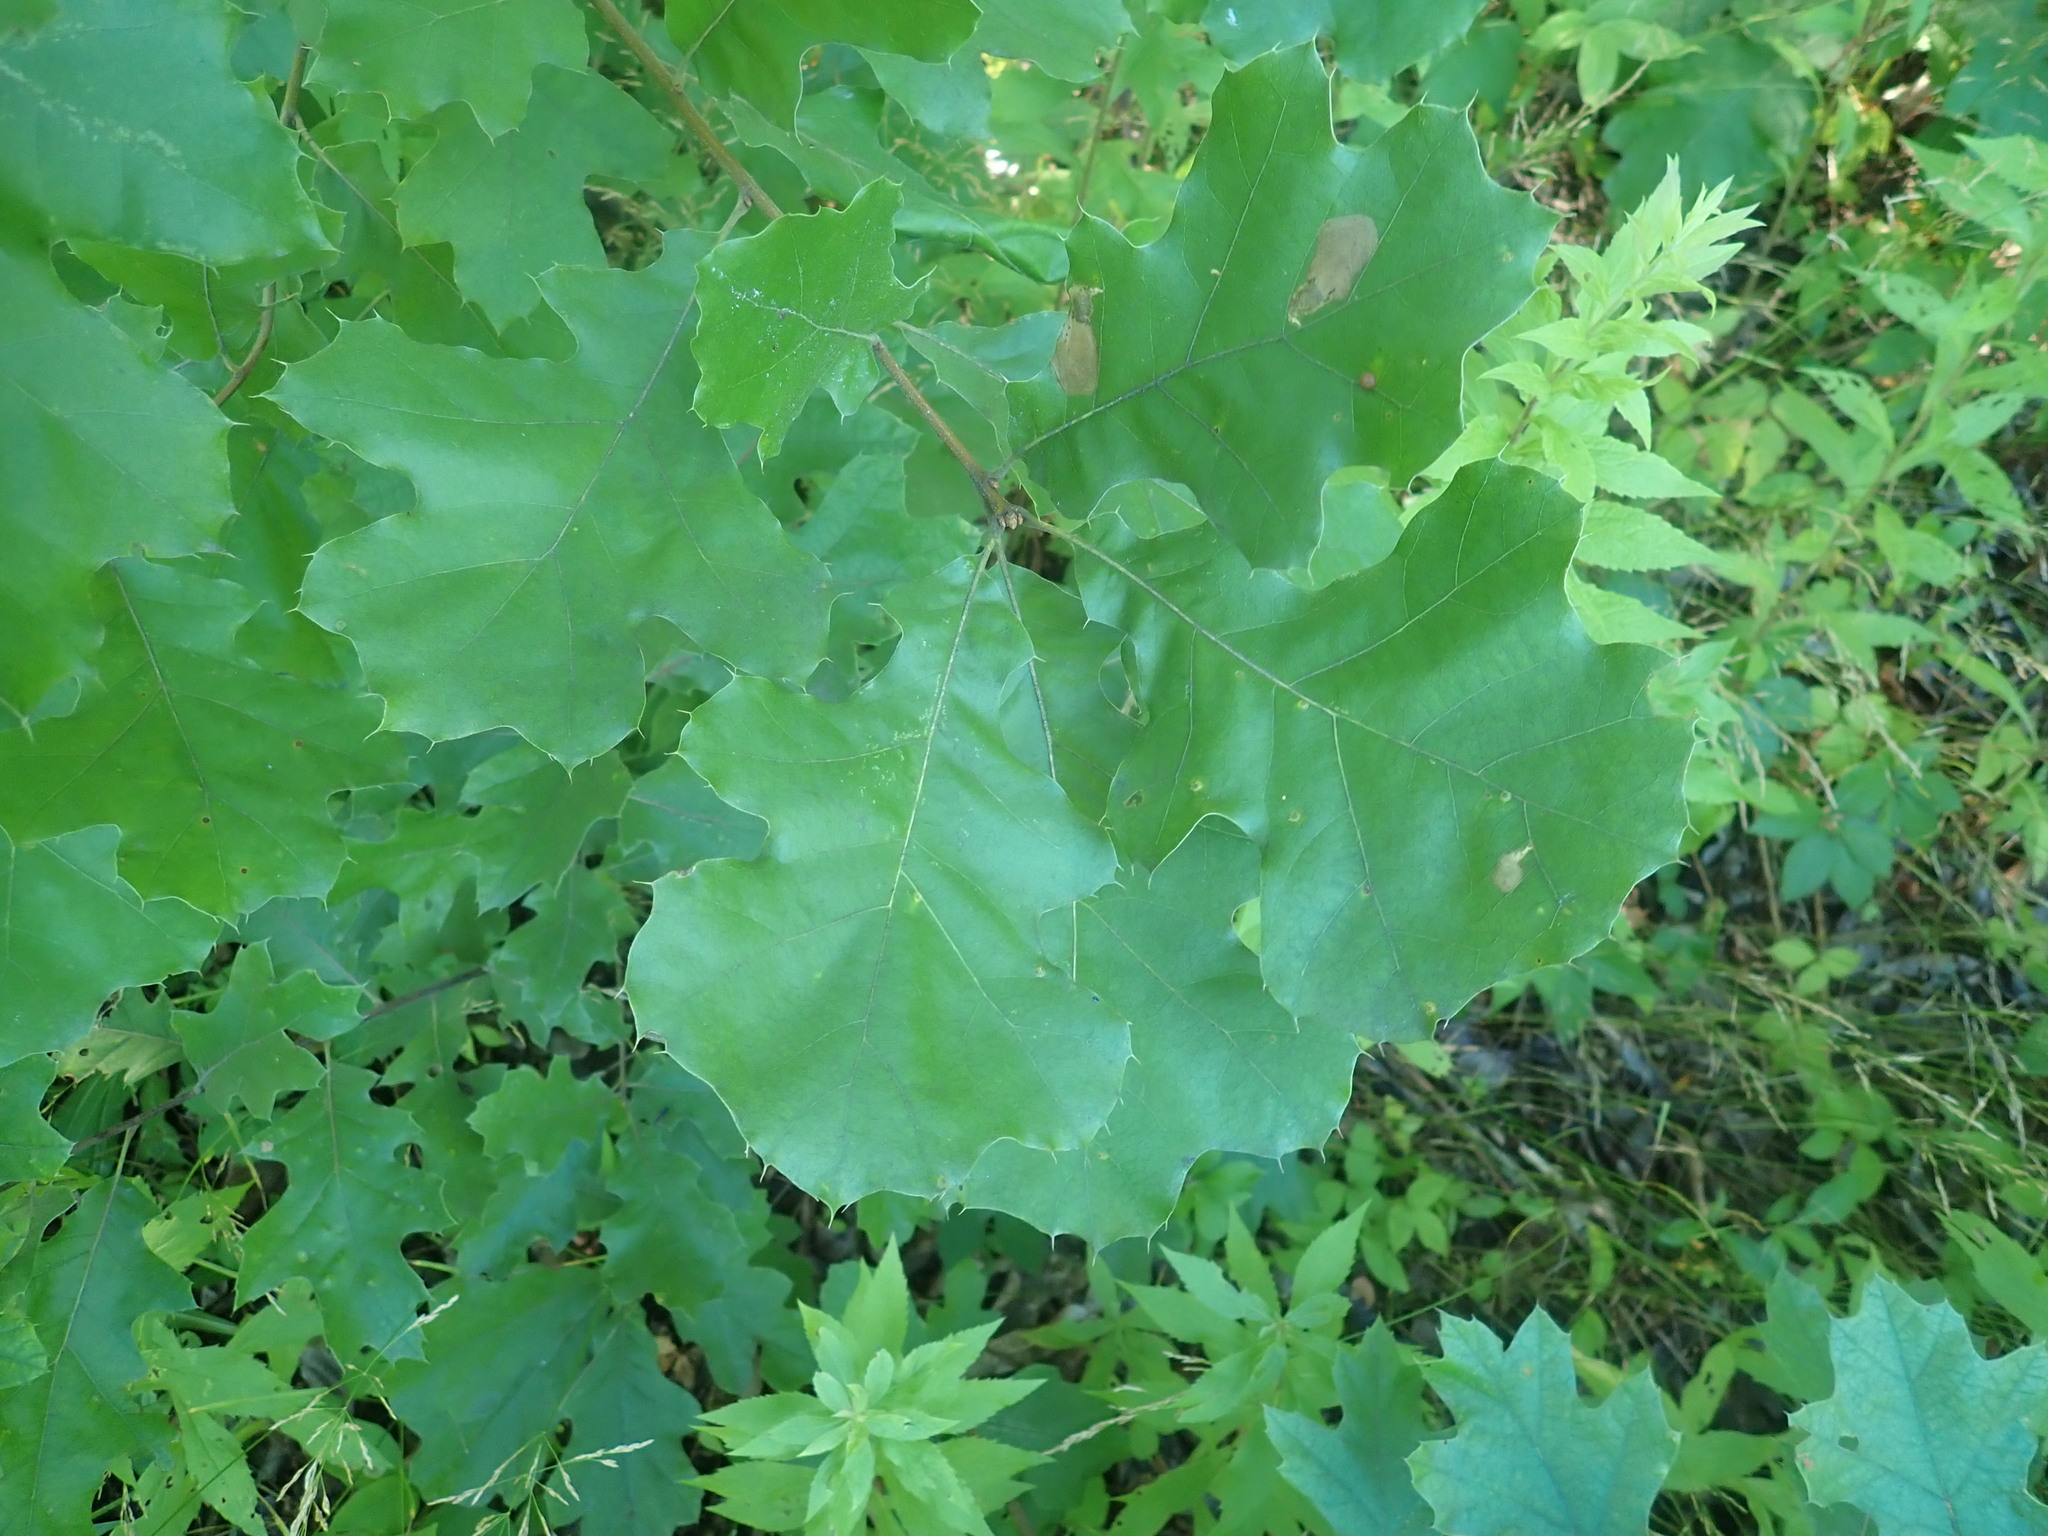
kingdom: Plantae
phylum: Tracheophyta
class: Magnoliopsida
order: Fagales
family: Fagaceae
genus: Quercus
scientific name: Quercus velutina
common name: Black oak
